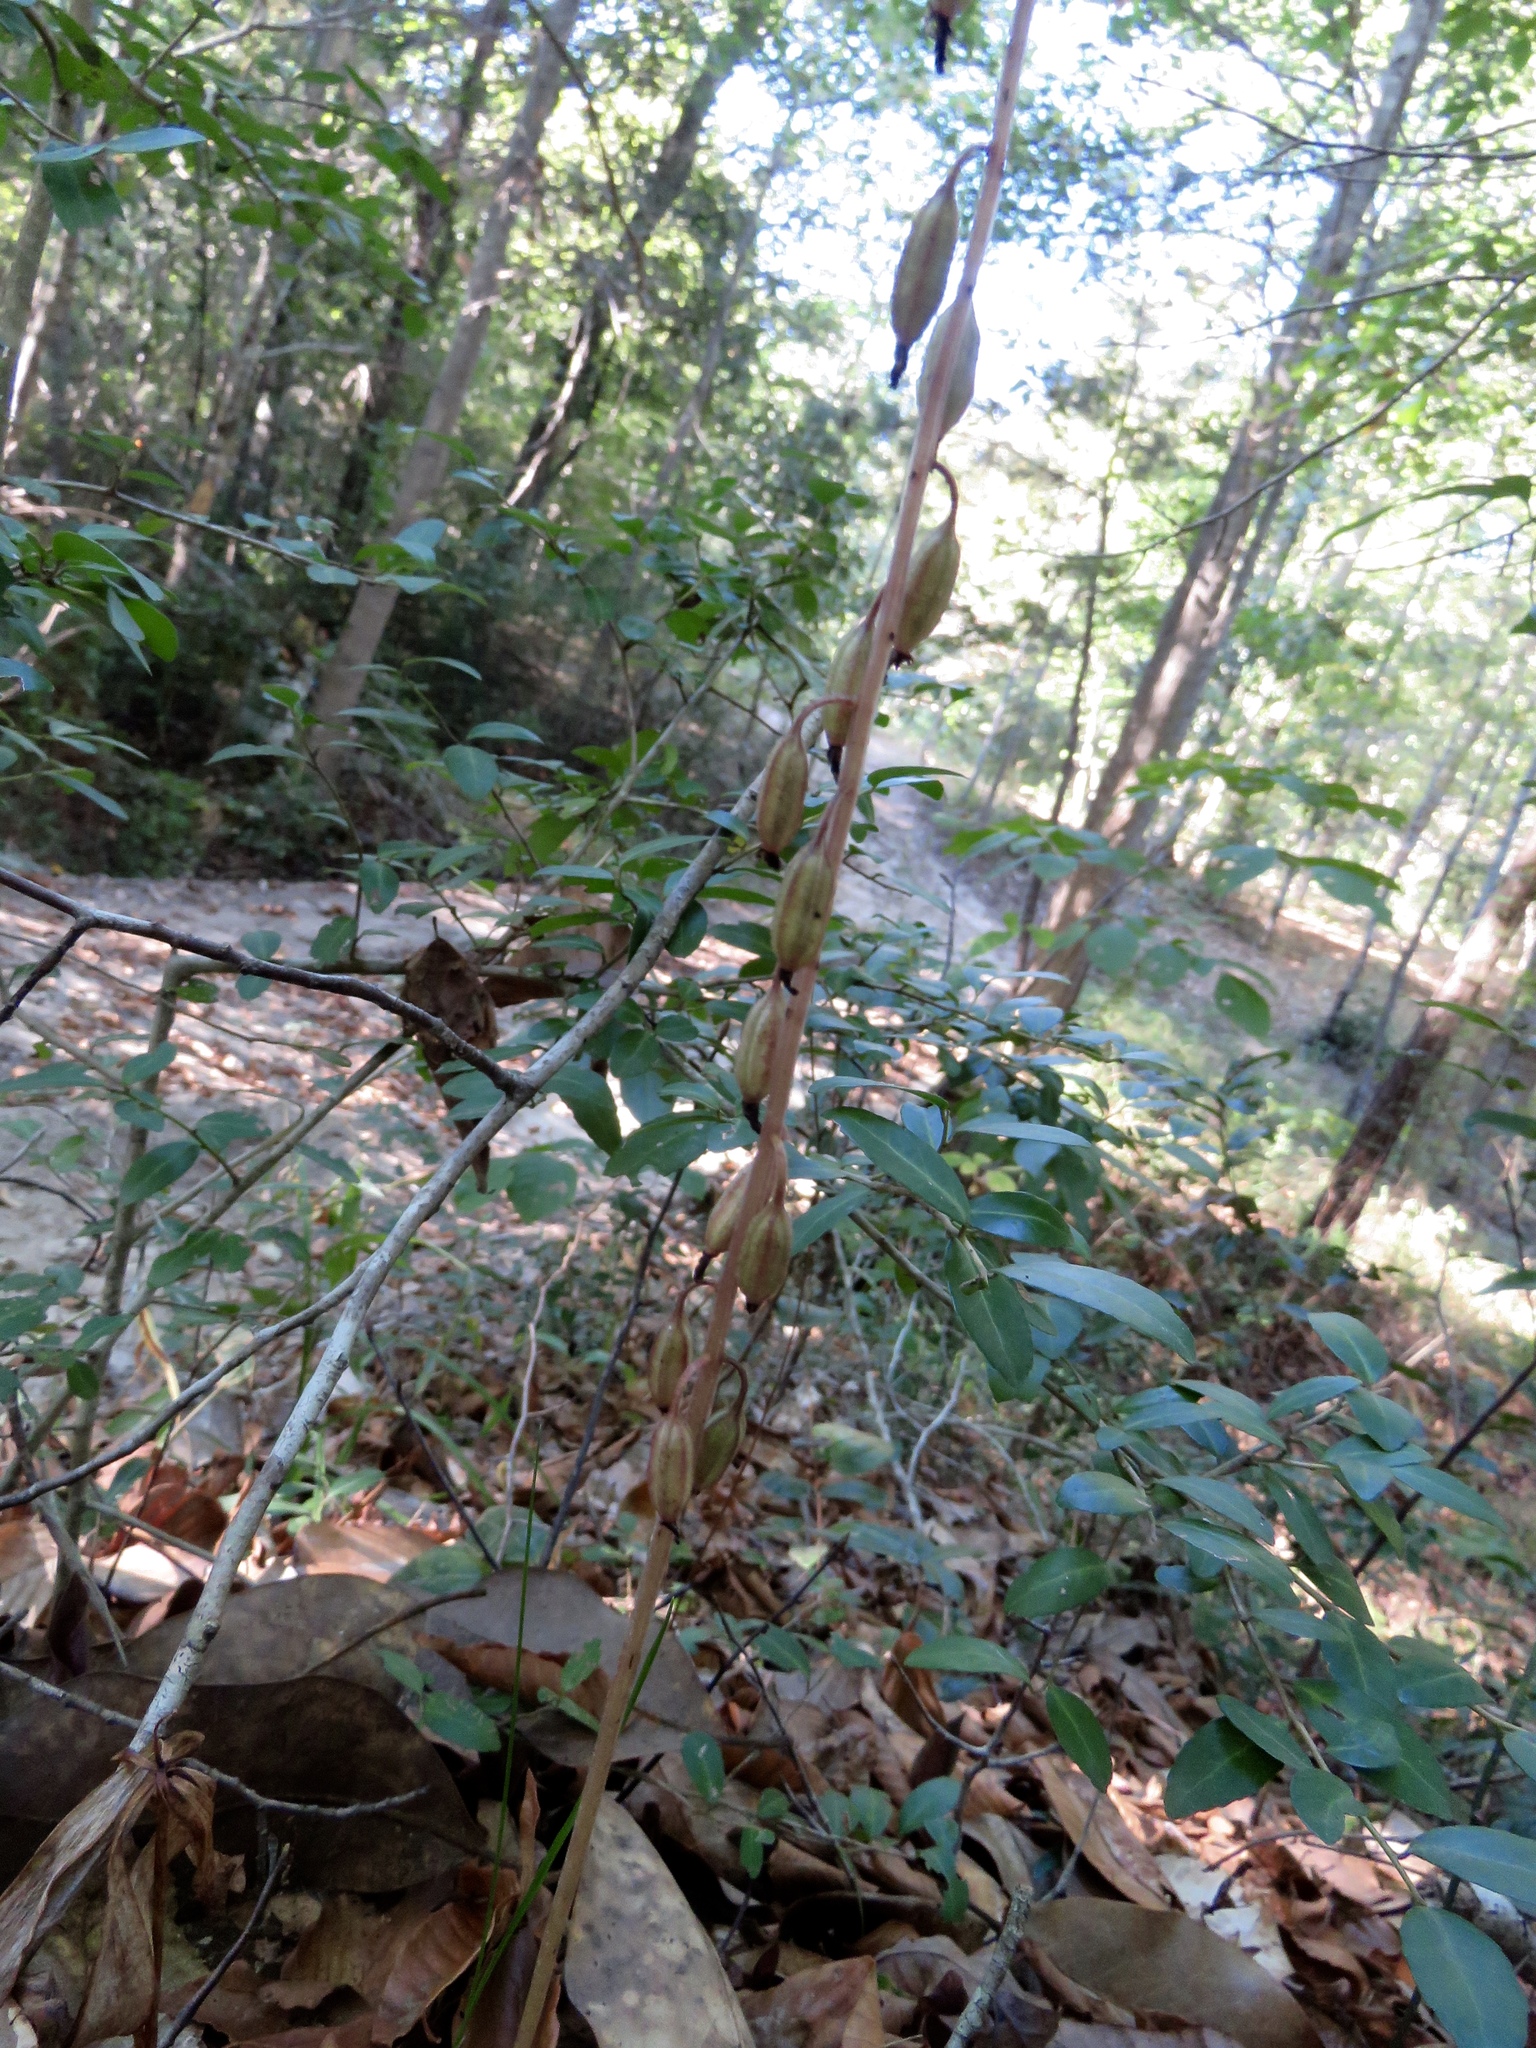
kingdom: Plantae
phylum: Tracheophyta
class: Liliopsida
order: Asparagales
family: Orchidaceae
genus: Tipularia
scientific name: Tipularia discolor
